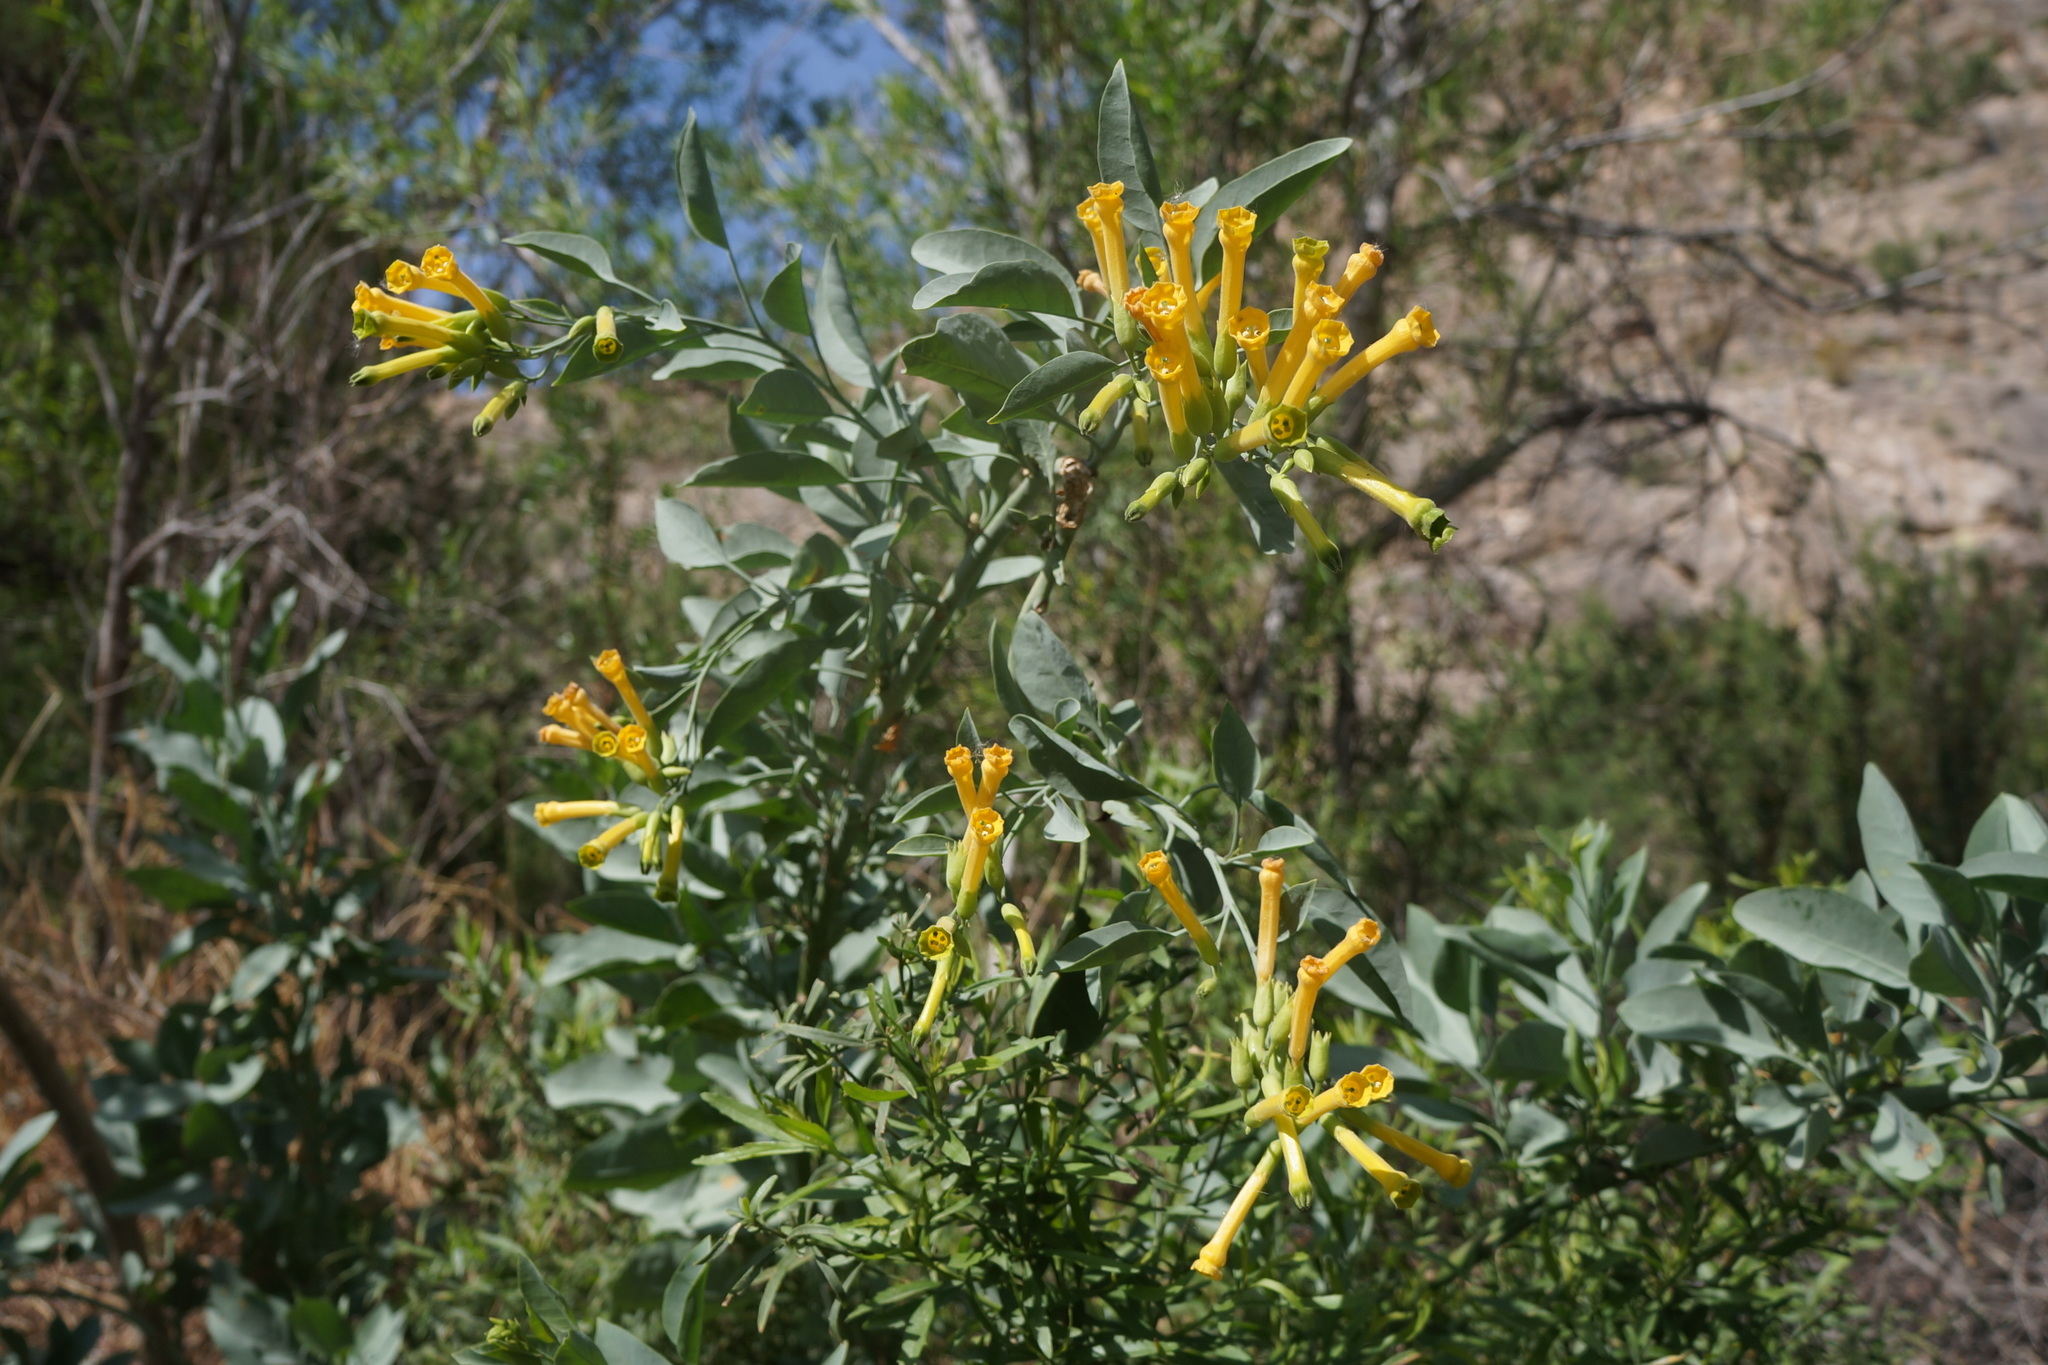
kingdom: Plantae
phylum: Tracheophyta
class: Magnoliopsida
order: Solanales
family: Solanaceae
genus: Nicotiana
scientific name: Nicotiana glauca
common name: Tree tobacco
